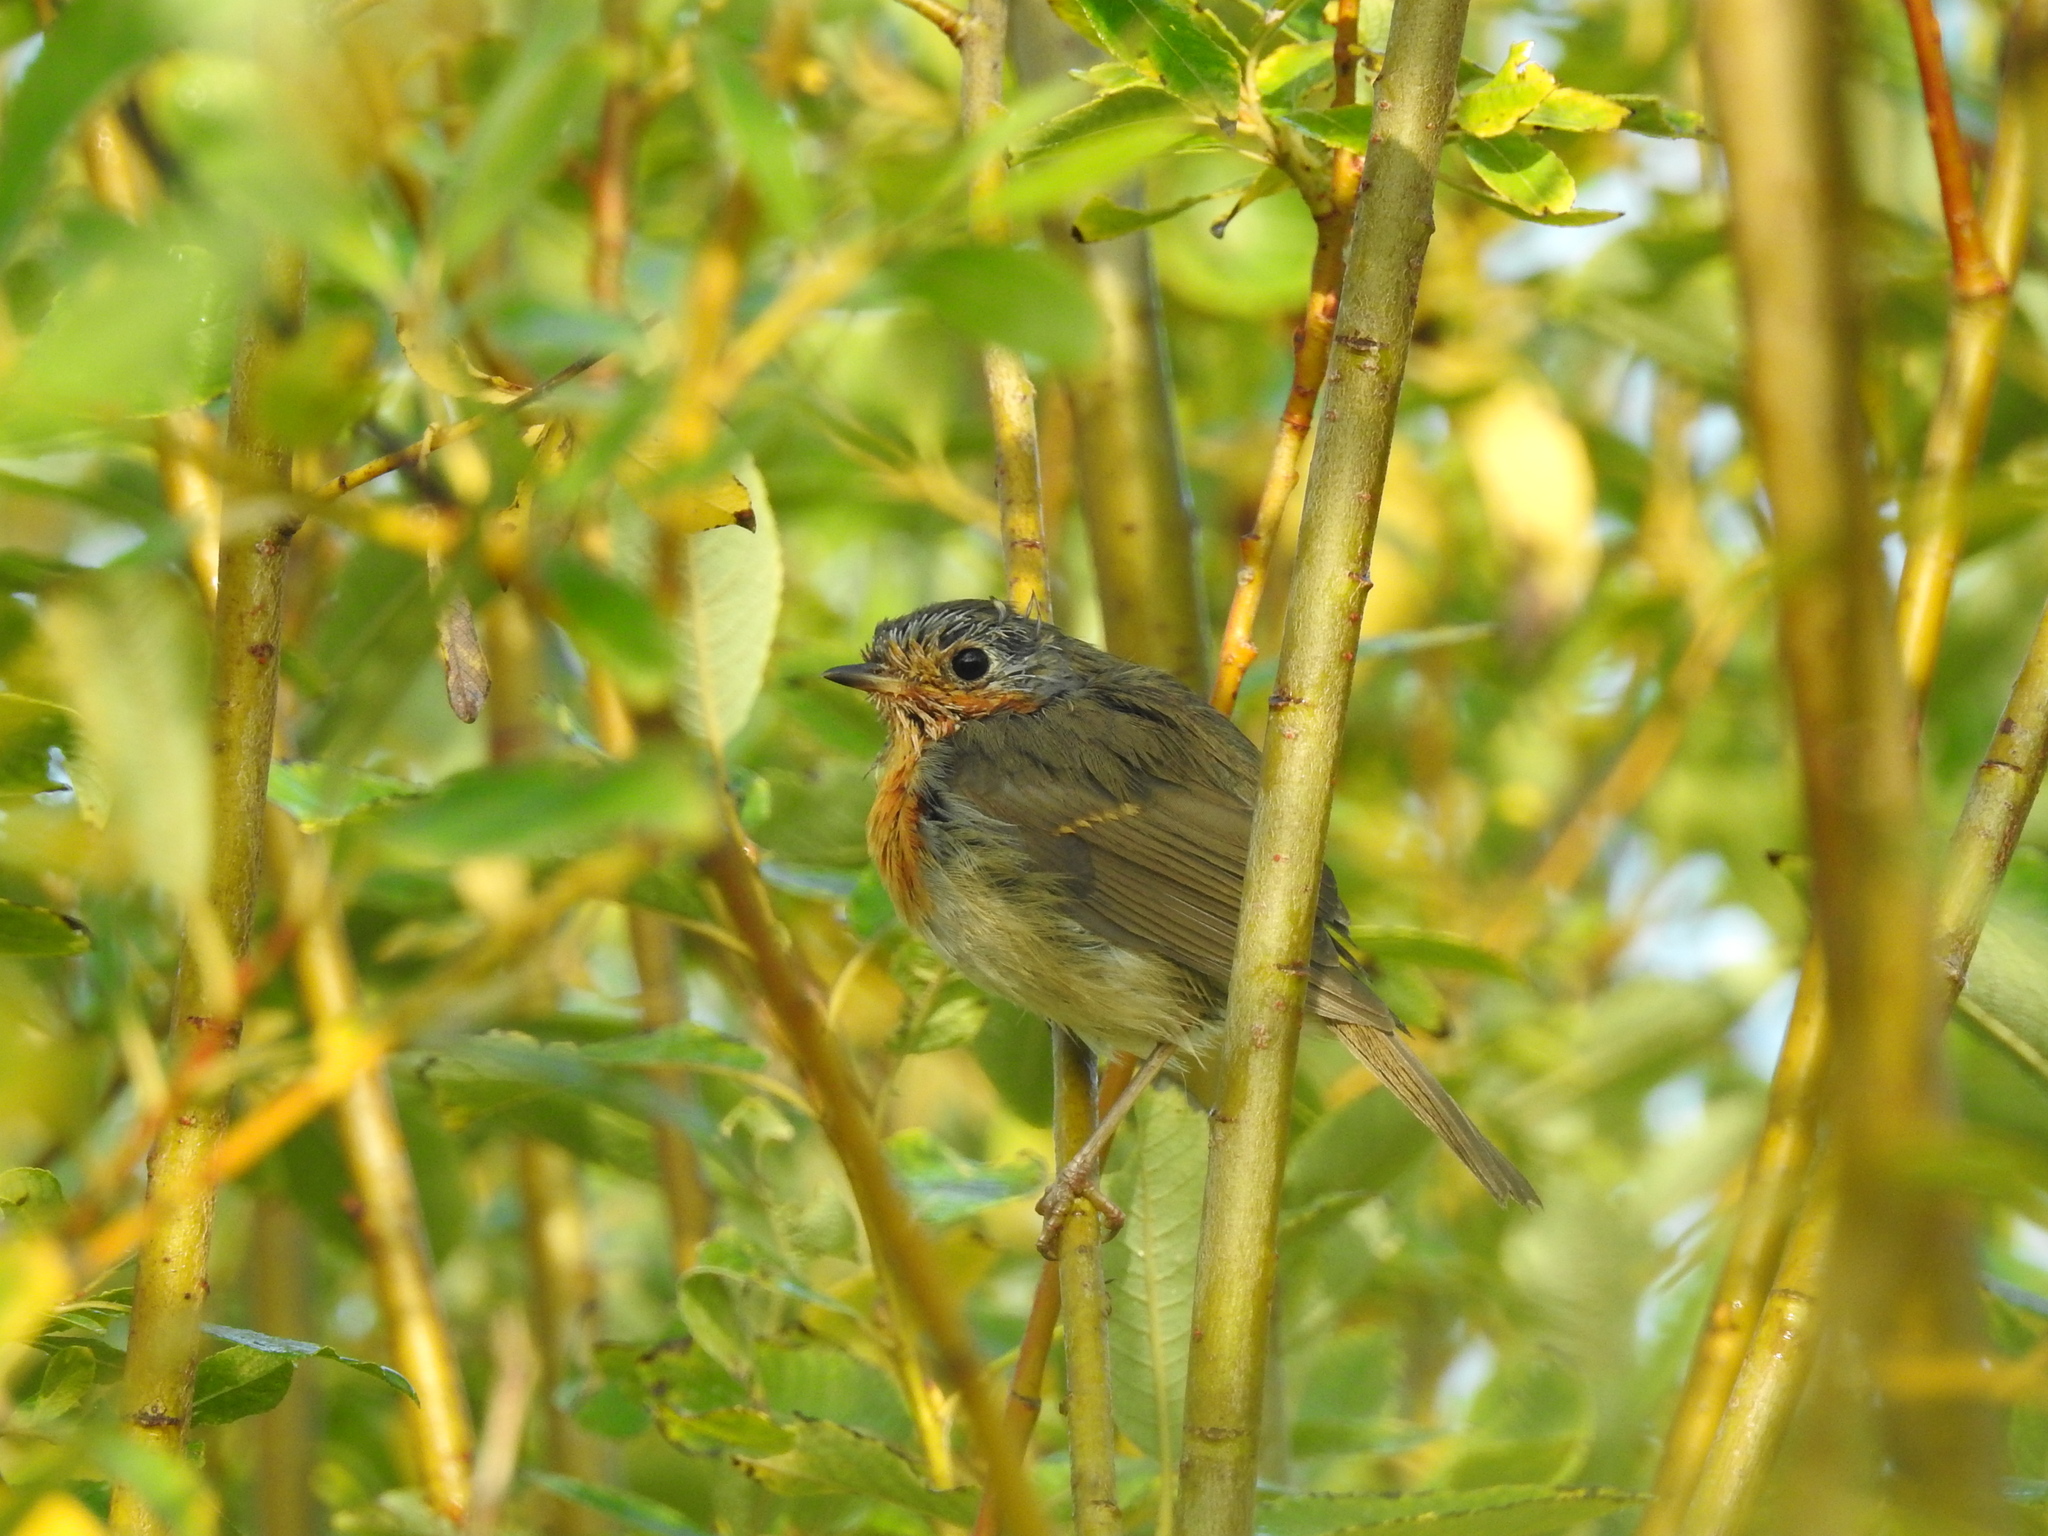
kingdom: Animalia
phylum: Chordata
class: Aves
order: Passeriformes
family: Muscicapidae
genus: Erithacus
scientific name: Erithacus rubecula
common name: European robin
